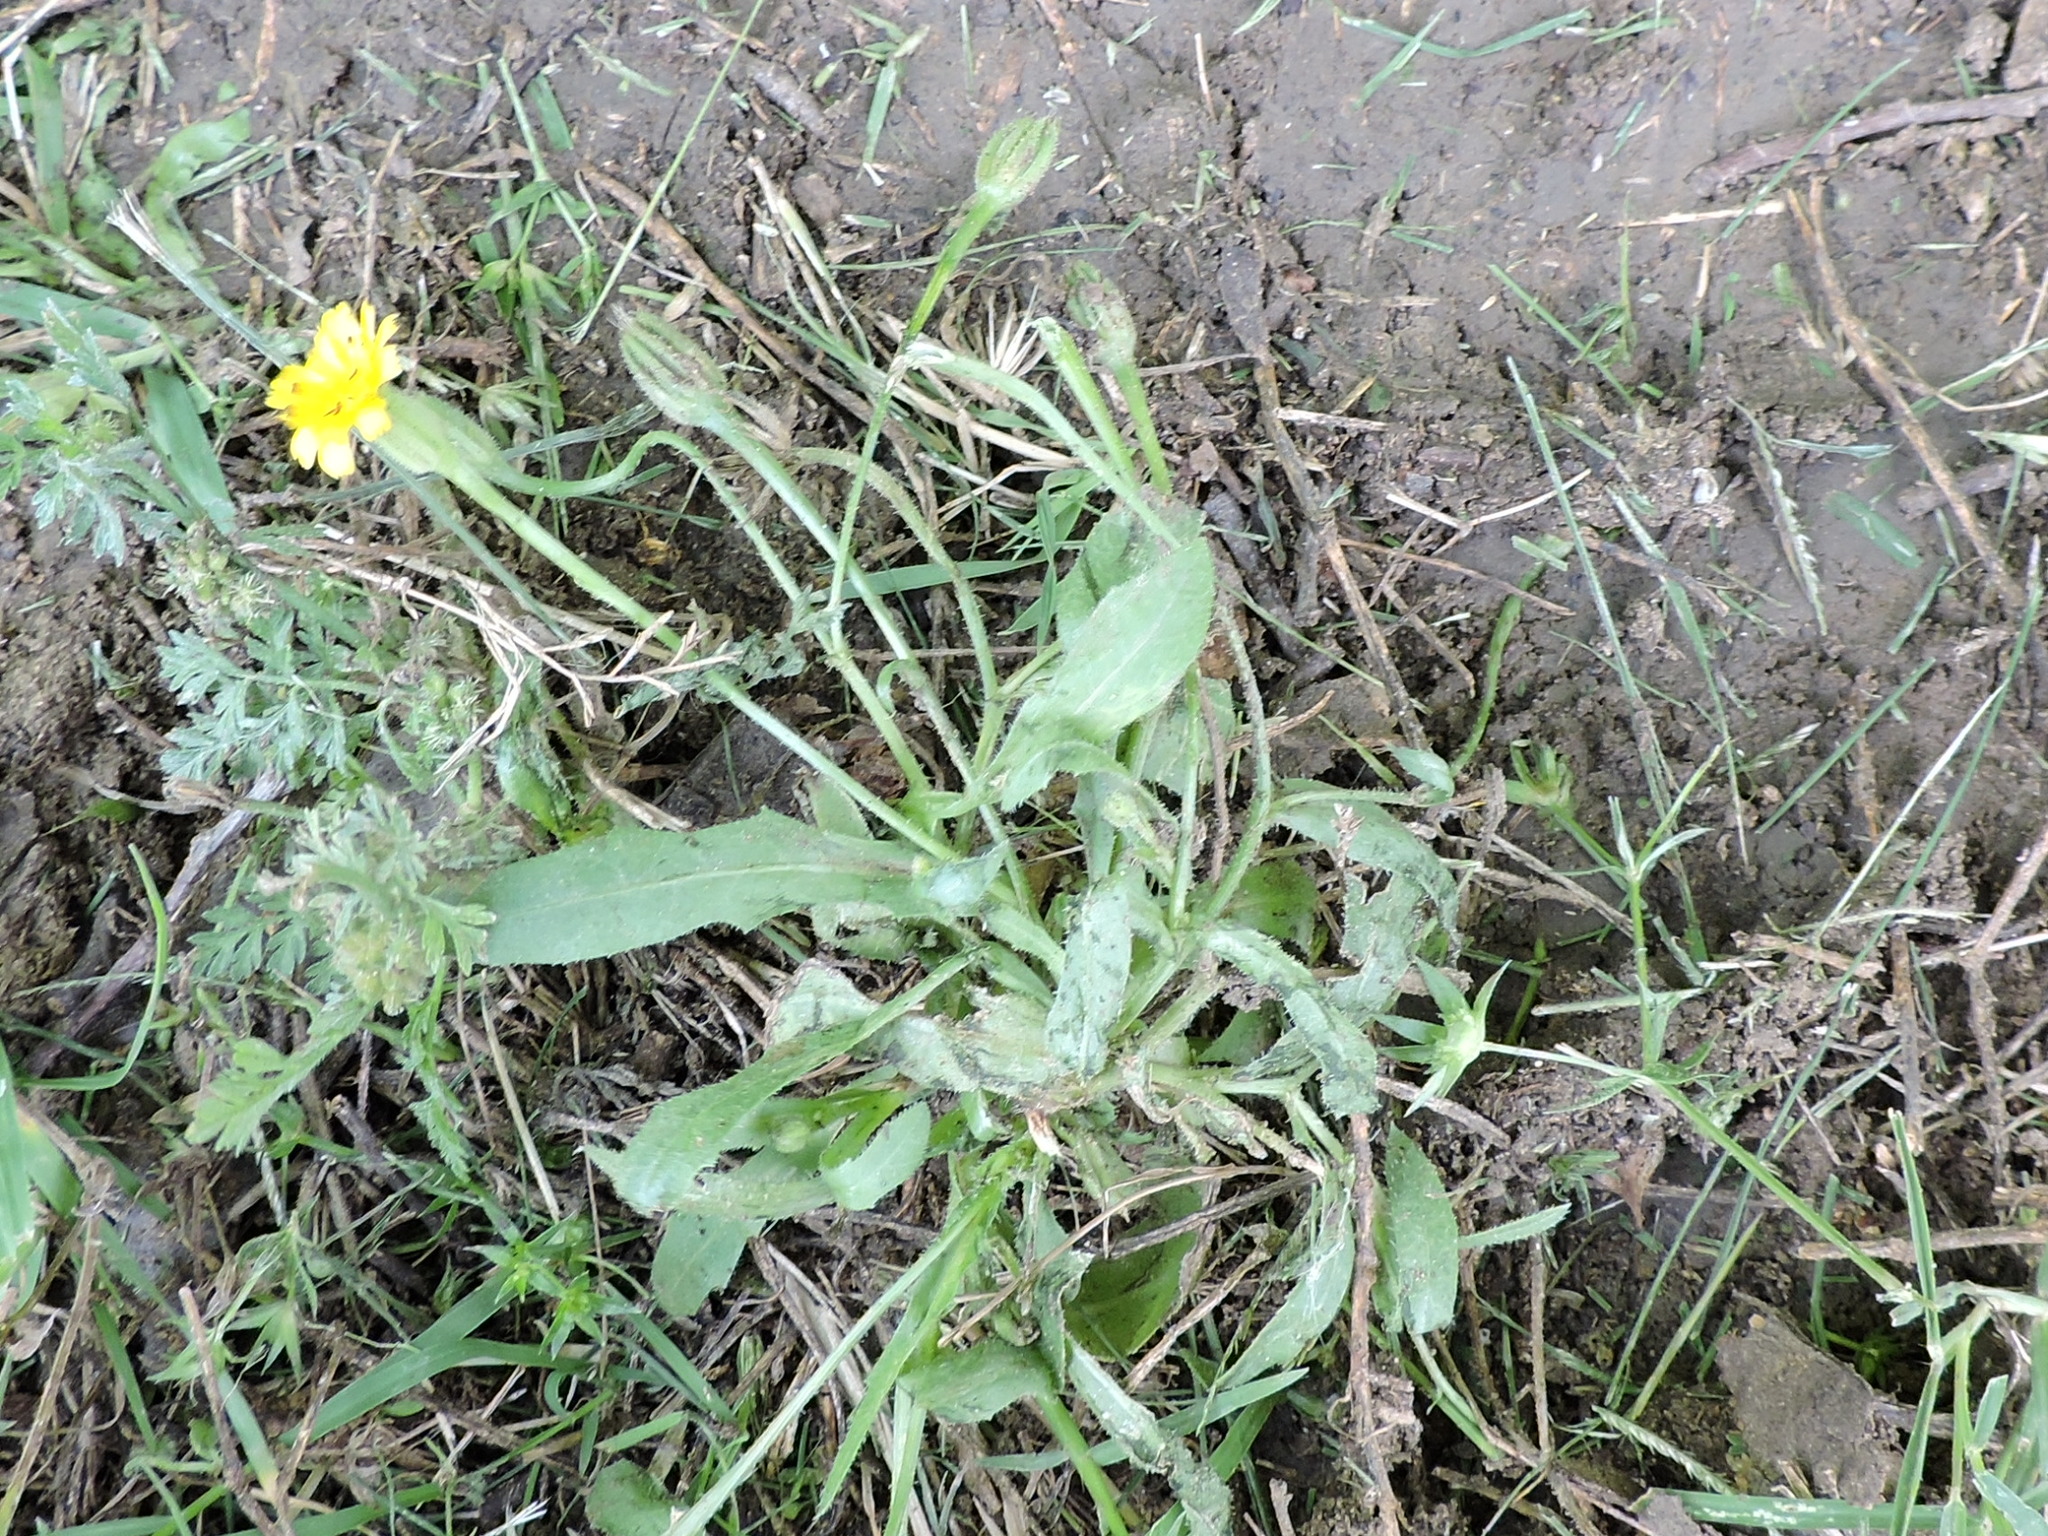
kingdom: Plantae
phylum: Tracheophyta
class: Magnoliopsida
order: Asterales
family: Asteraceae
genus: Hedypnois
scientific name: Hedypnois rhagadioloides
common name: Cretan weed
